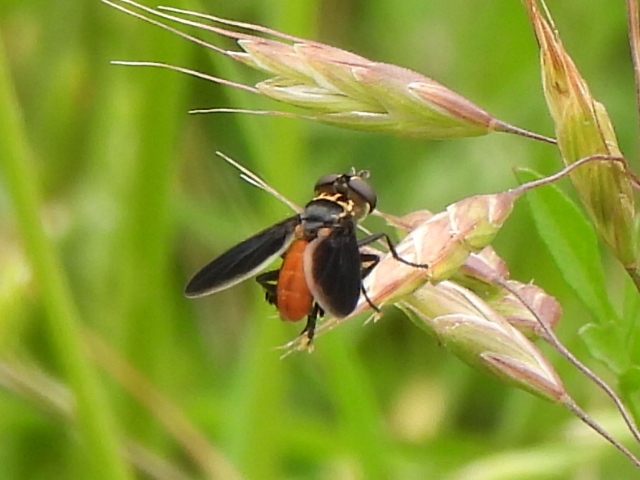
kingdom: Animalia
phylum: Arthropoda
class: Insecta
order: Diptera
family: Tachinidae
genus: Trichopoda
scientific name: Trichopoda pennipes
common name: Tachinid fly
